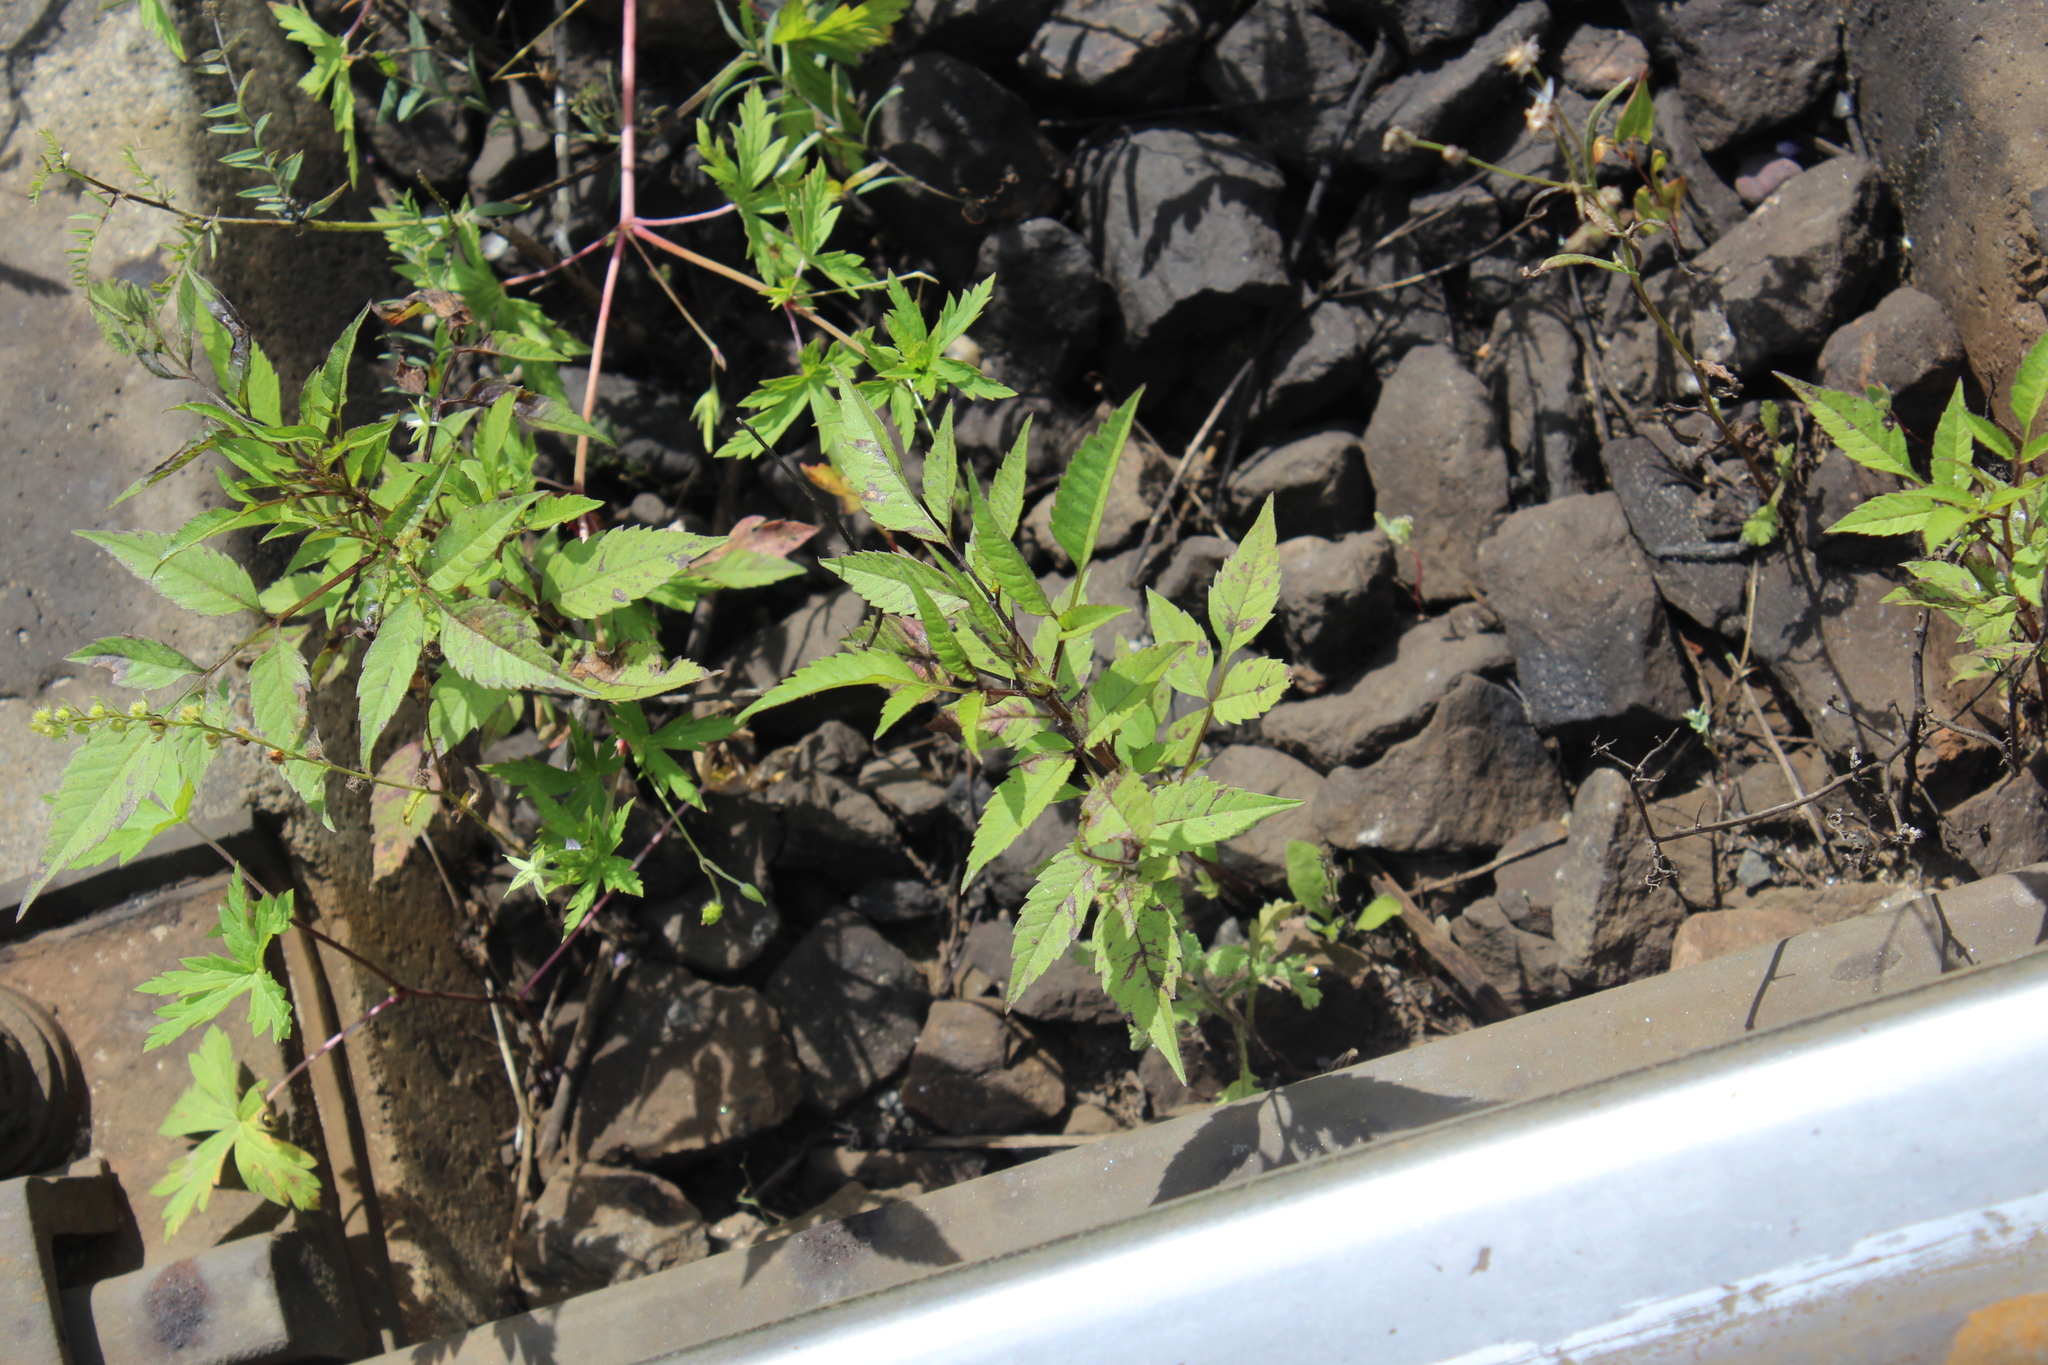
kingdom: Plantae
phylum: Tracheophyta
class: Magnoliopsida
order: Asterales
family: Asteraceae
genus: Bidens
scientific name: Bidens frondosa
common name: Beggarticks
